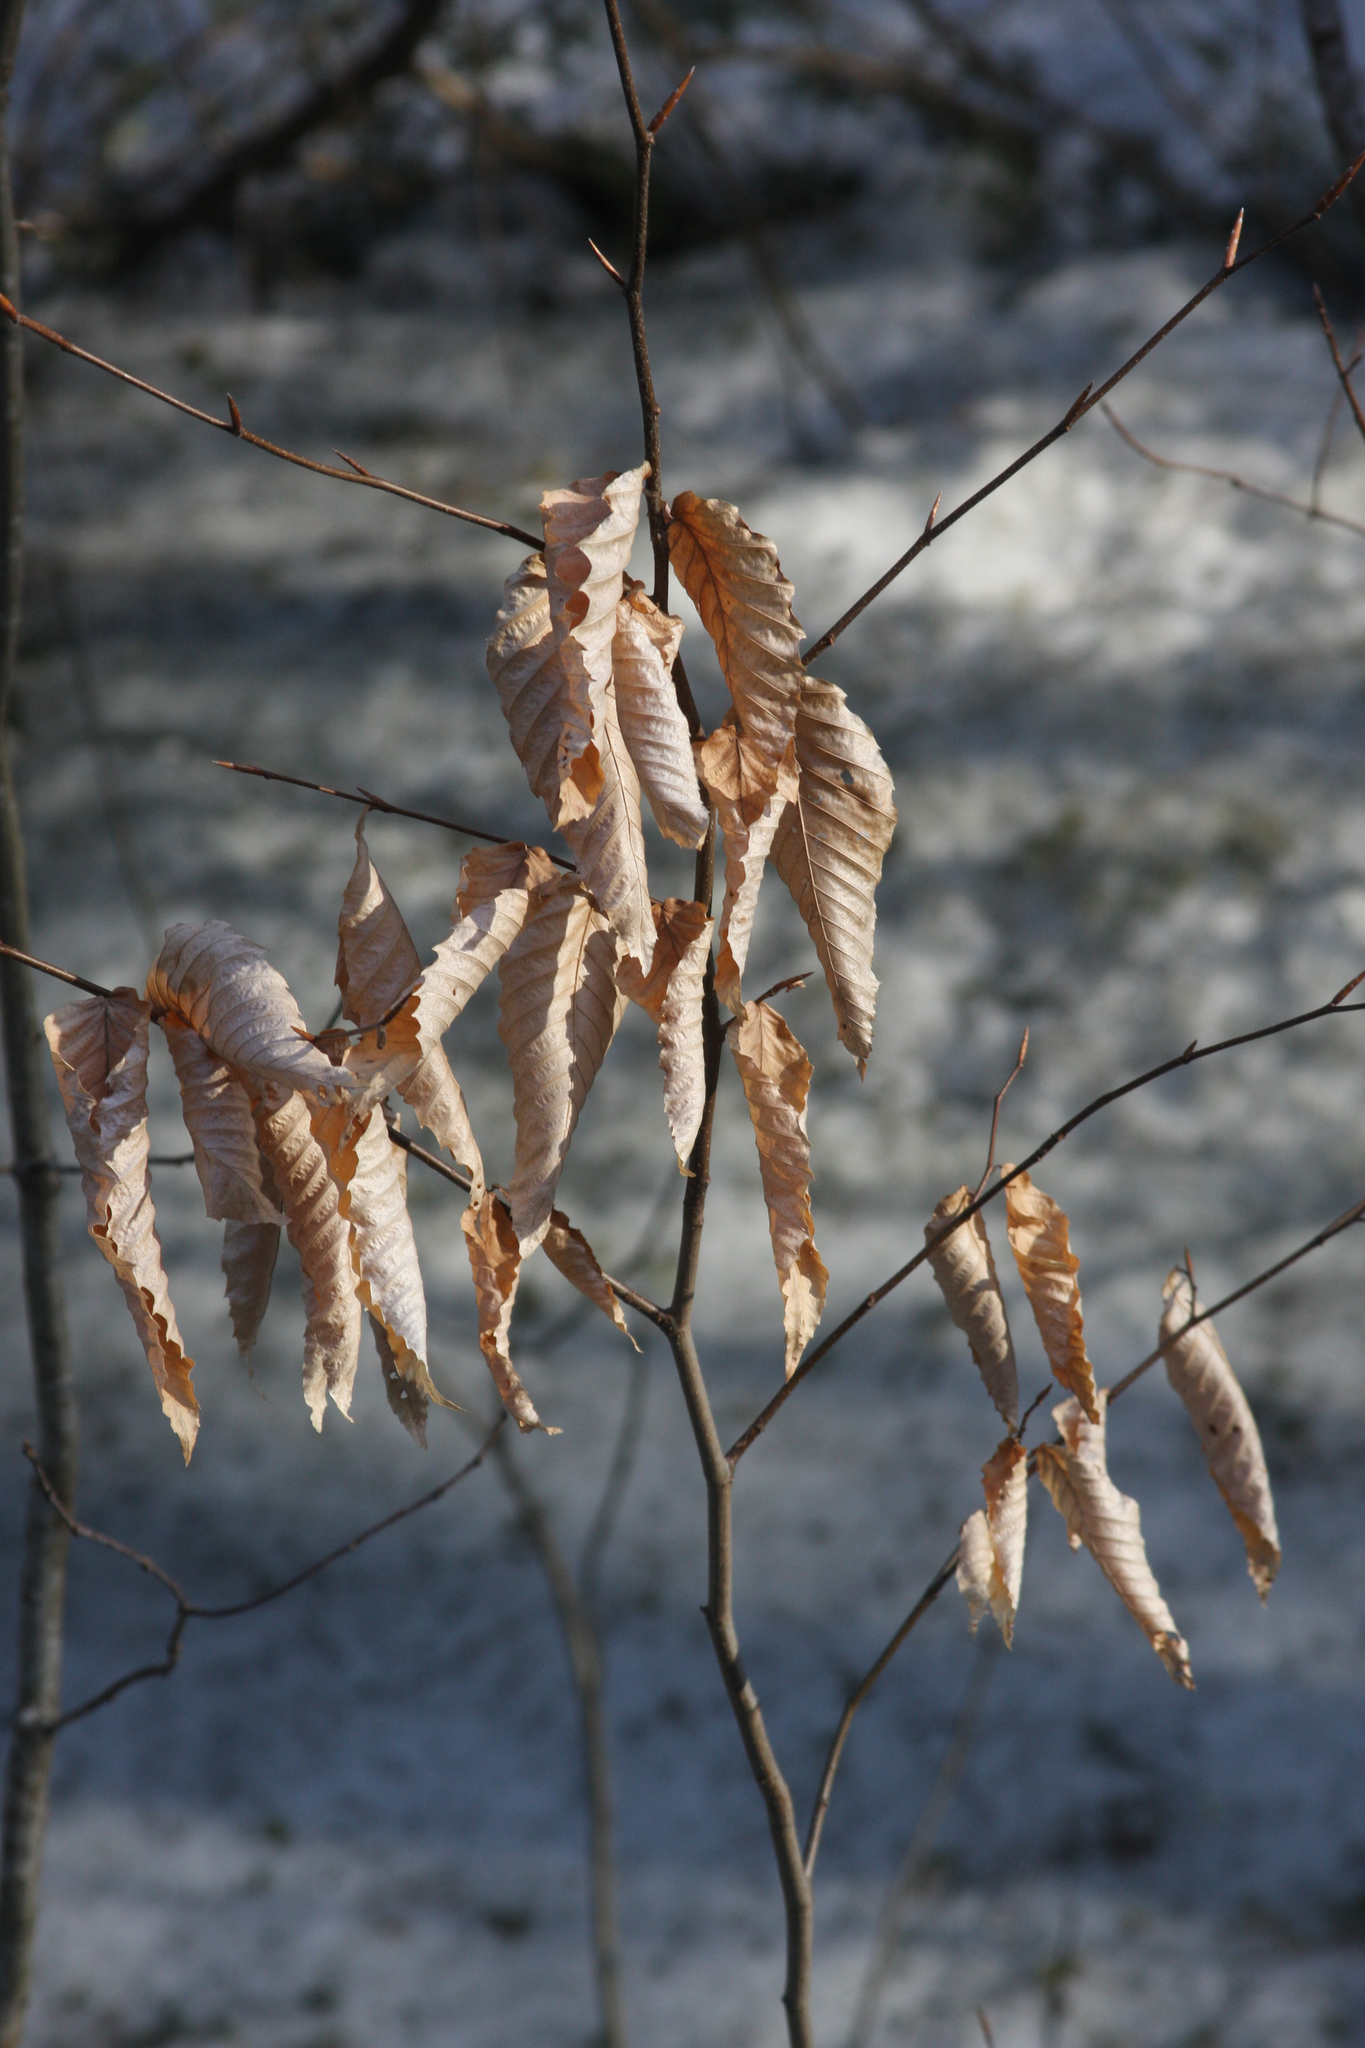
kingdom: Plantae
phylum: Tracheophyta
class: Magnoliopsida
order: Fagales
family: Fagaceae
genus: Fagus
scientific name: Fagus grandifolia
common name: American beech
